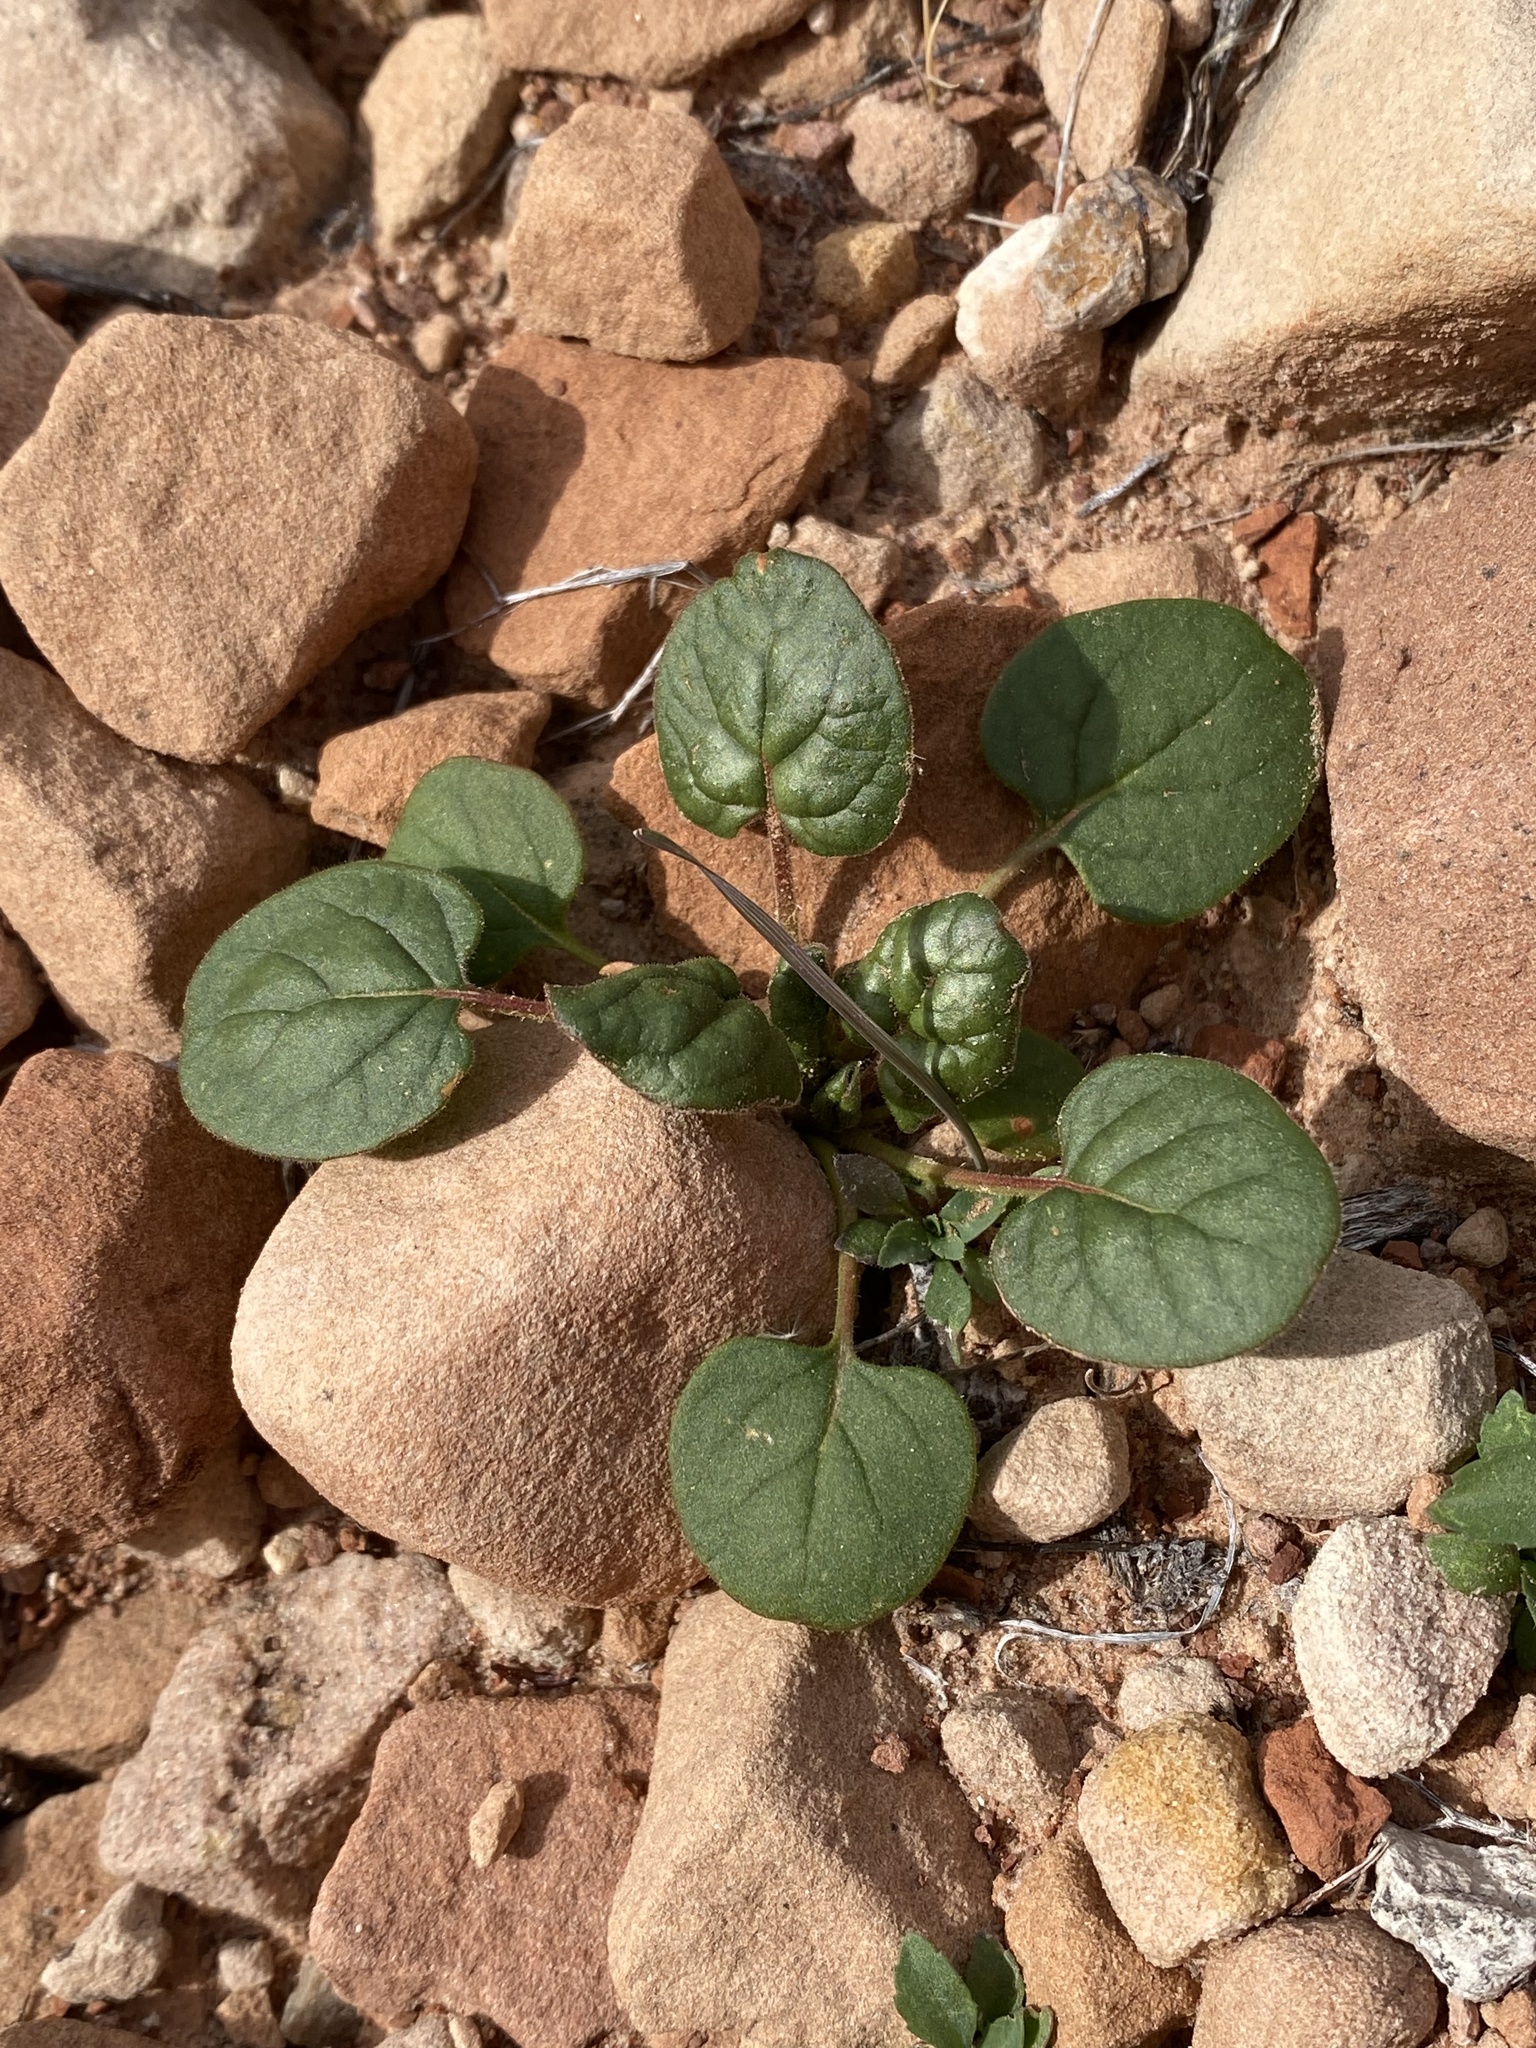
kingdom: Plantae
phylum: Tracheophyta
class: Magnoliopsida
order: Gentianales
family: Apocynaceae
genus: Aganosma
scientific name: Aganosma
